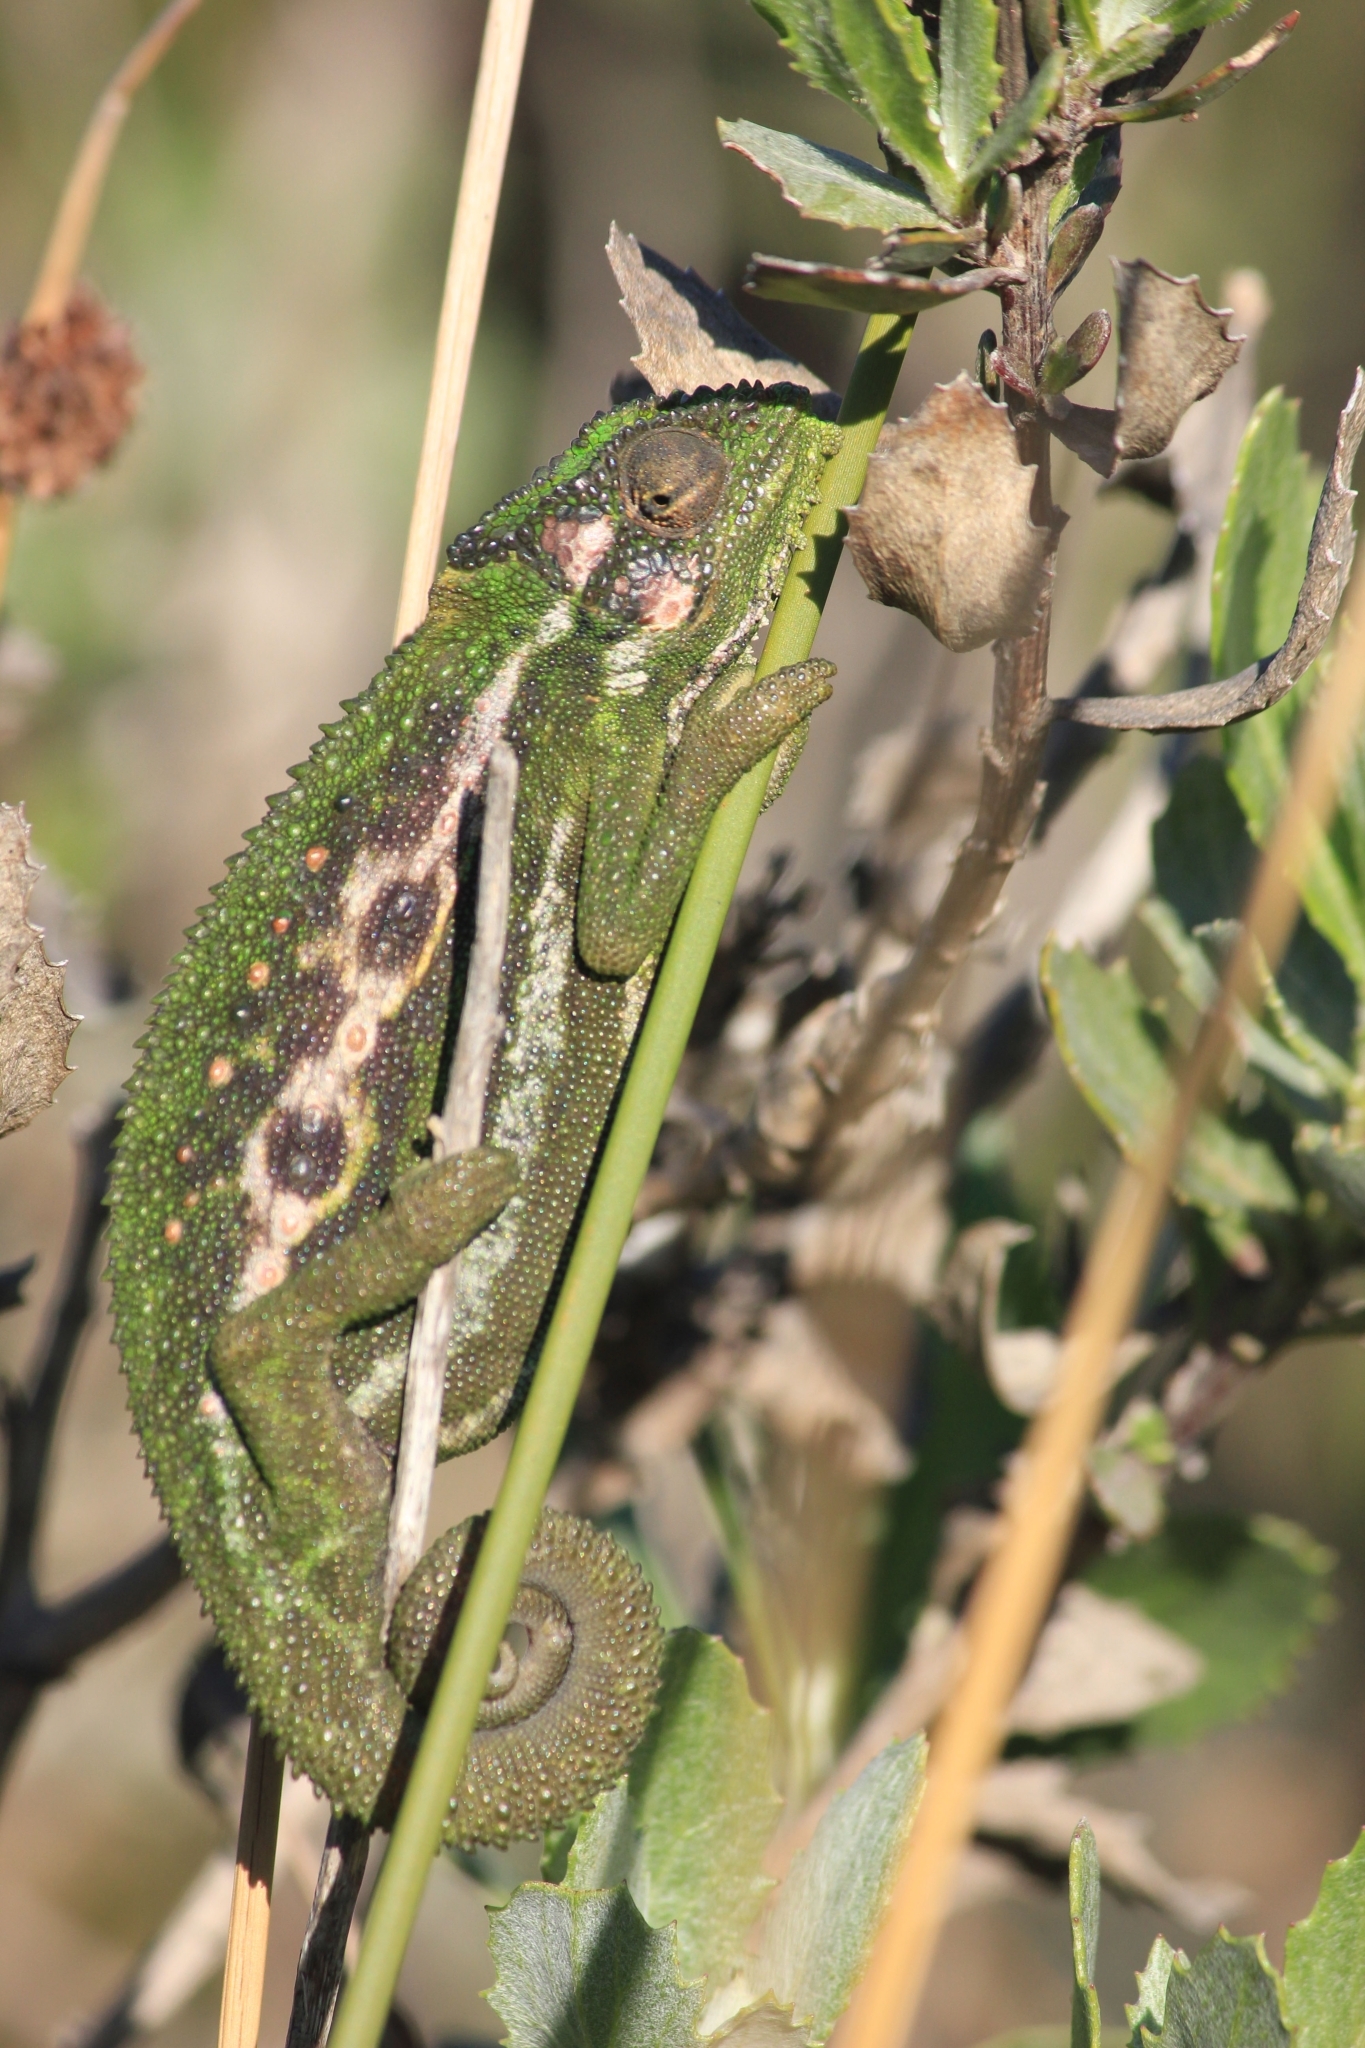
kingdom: Animalia
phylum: Chordata
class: Squamata
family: Chamaeleonidae
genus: Bradypodion
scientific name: Bradypodion pumilum
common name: Cape dwarf chameleon
